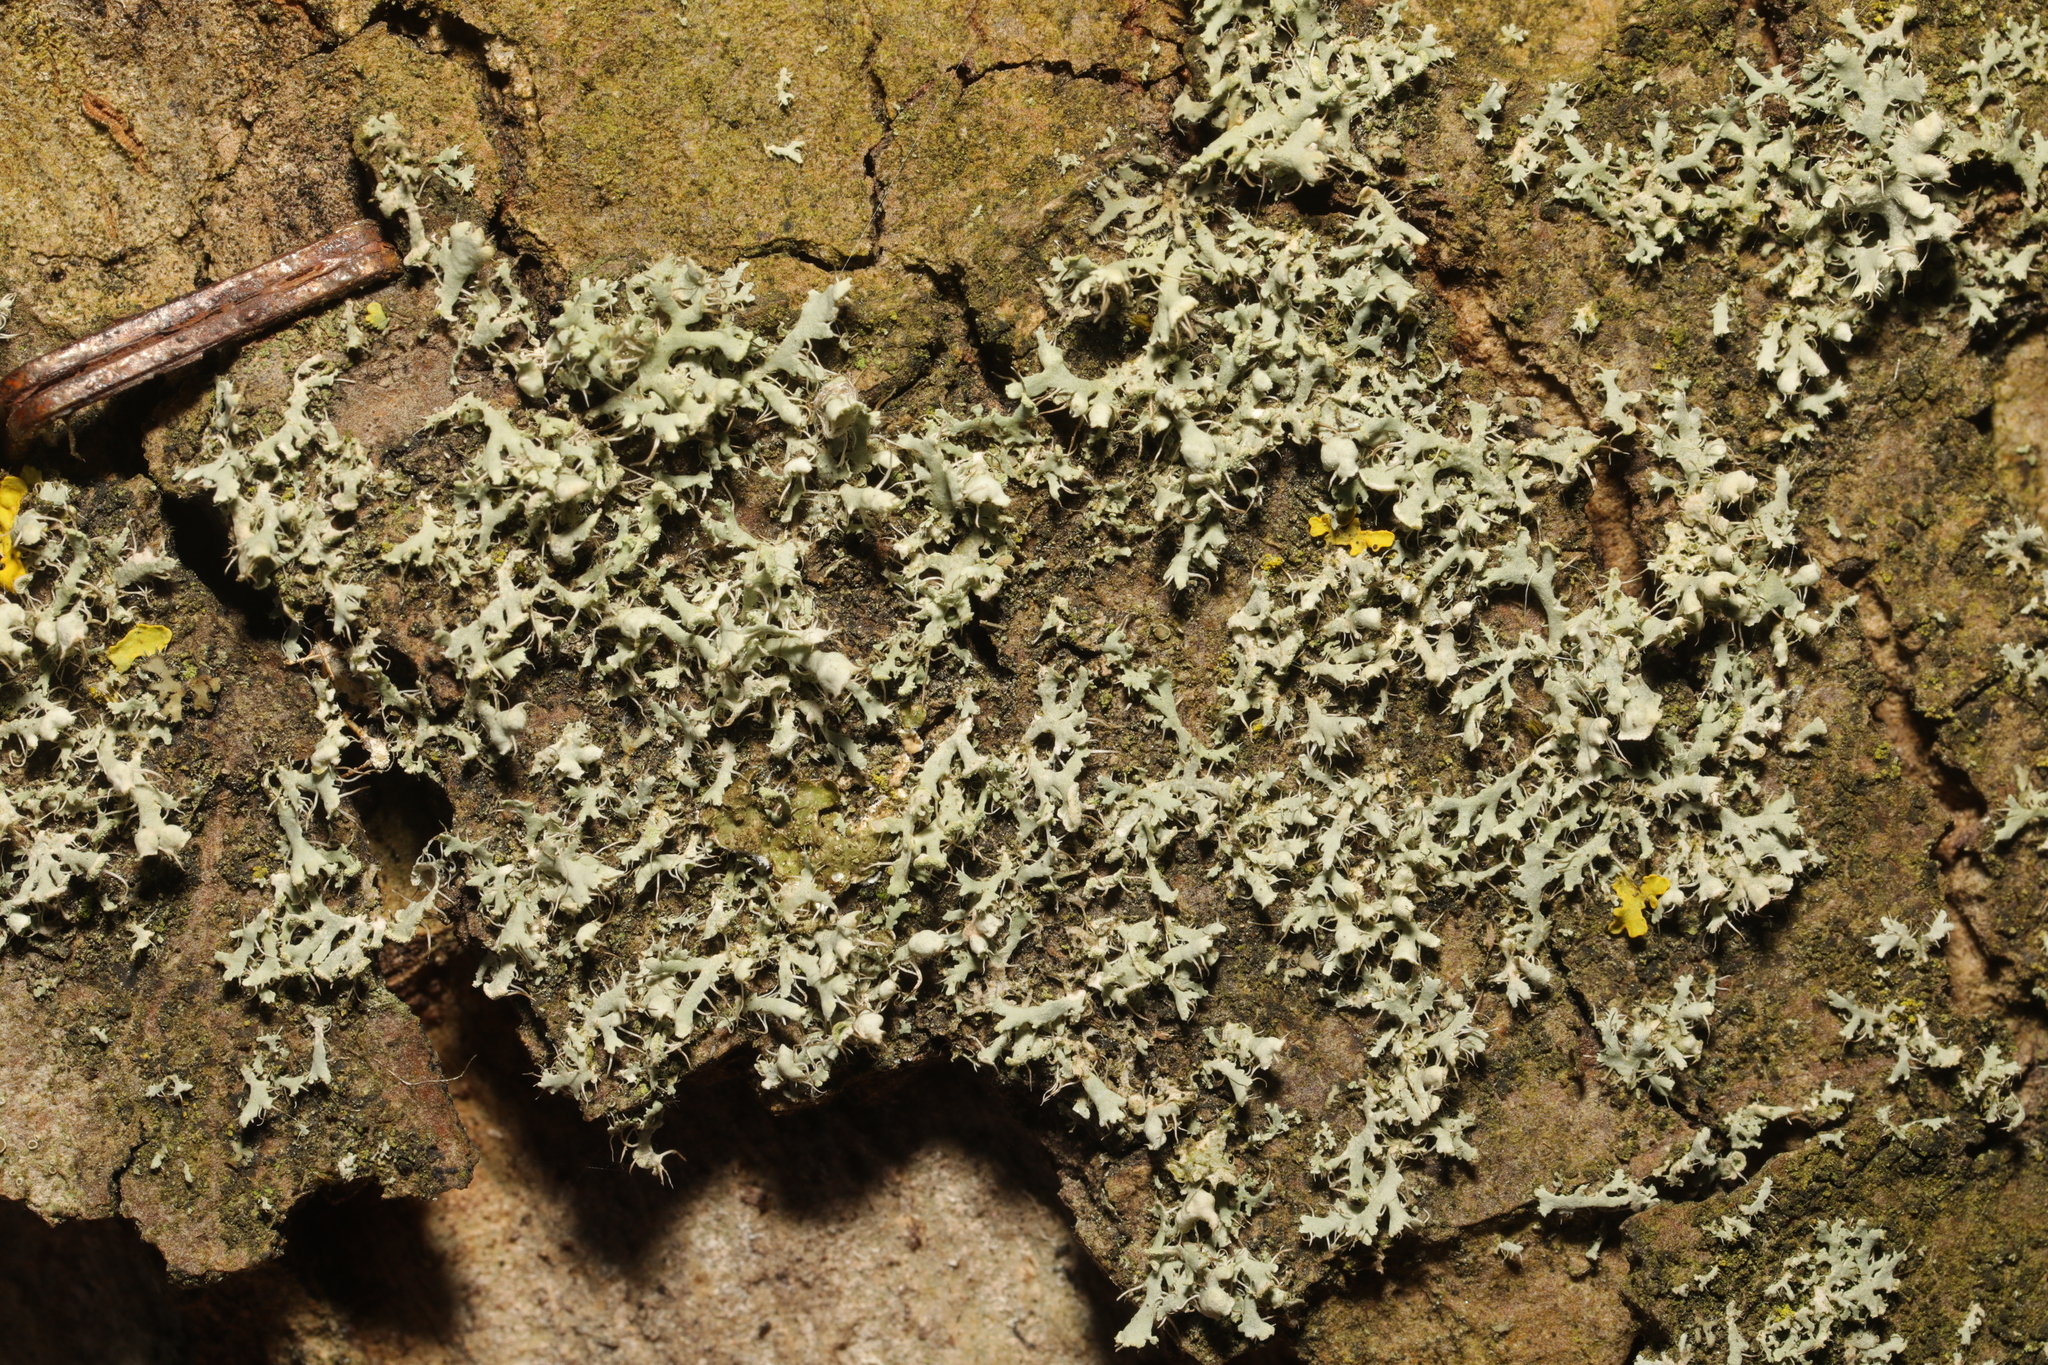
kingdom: Fungi
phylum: Ascomycota
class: Lecanoromycetes
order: Caliciales
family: Physciaceae
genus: Physcia
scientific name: Physcia adscendens
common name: Hooded rosette lichen
